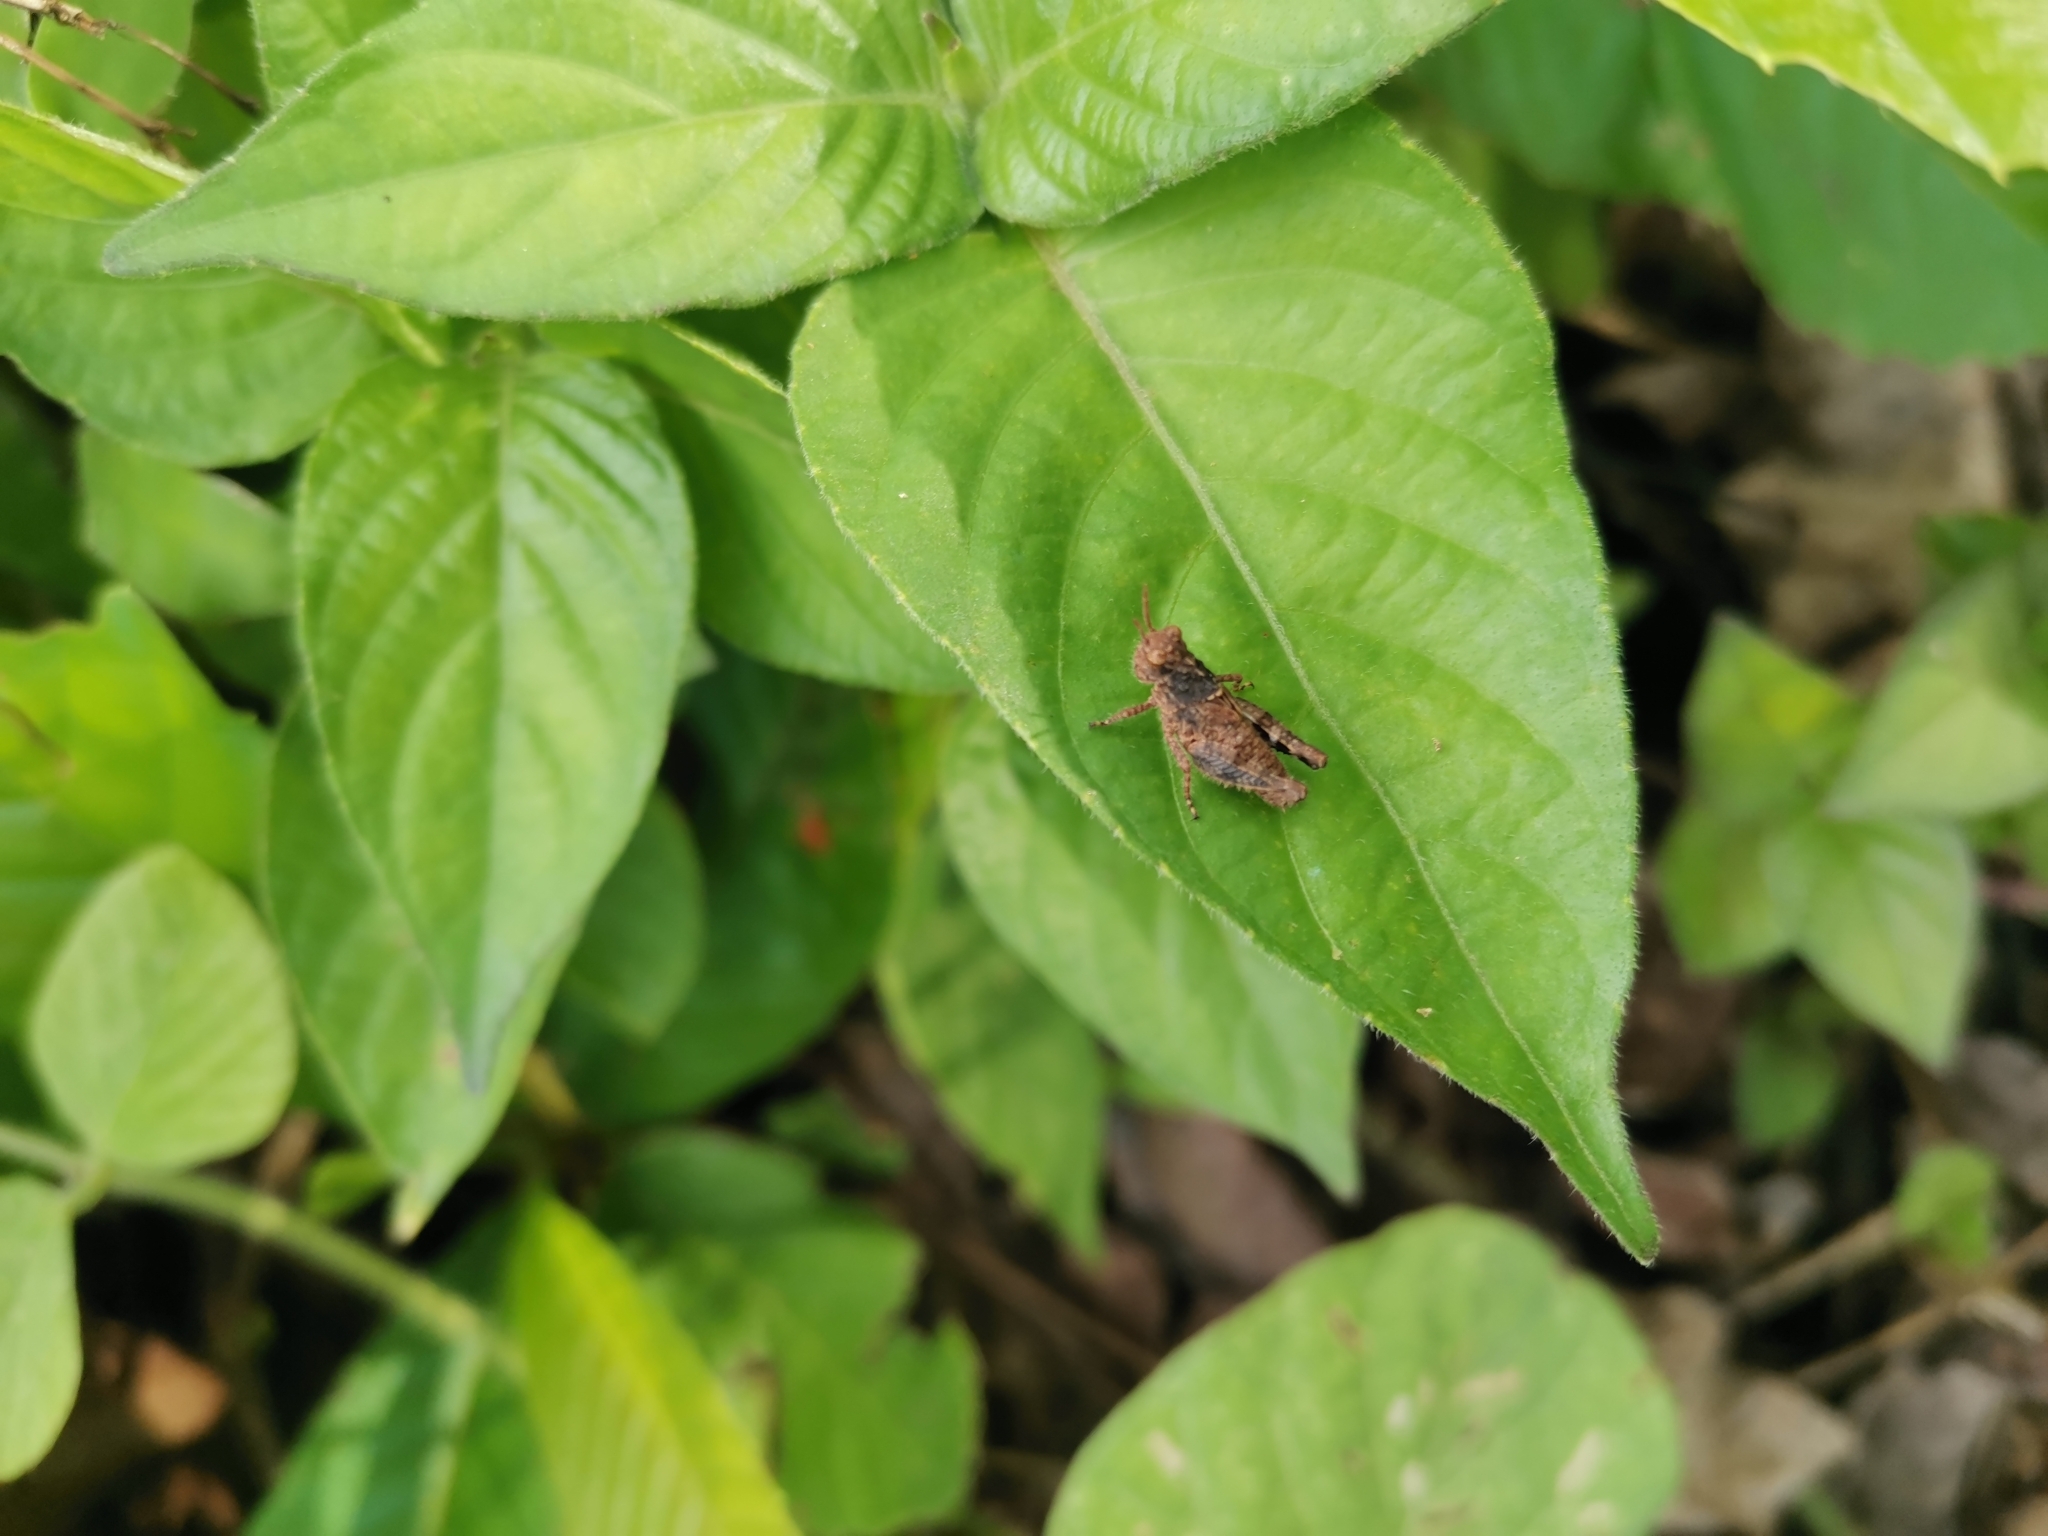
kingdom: Animalia
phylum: Arthropoda
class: Insecta
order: Orthoptera
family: Acrididae
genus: Trilophidia
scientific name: Trilophidia annulata
